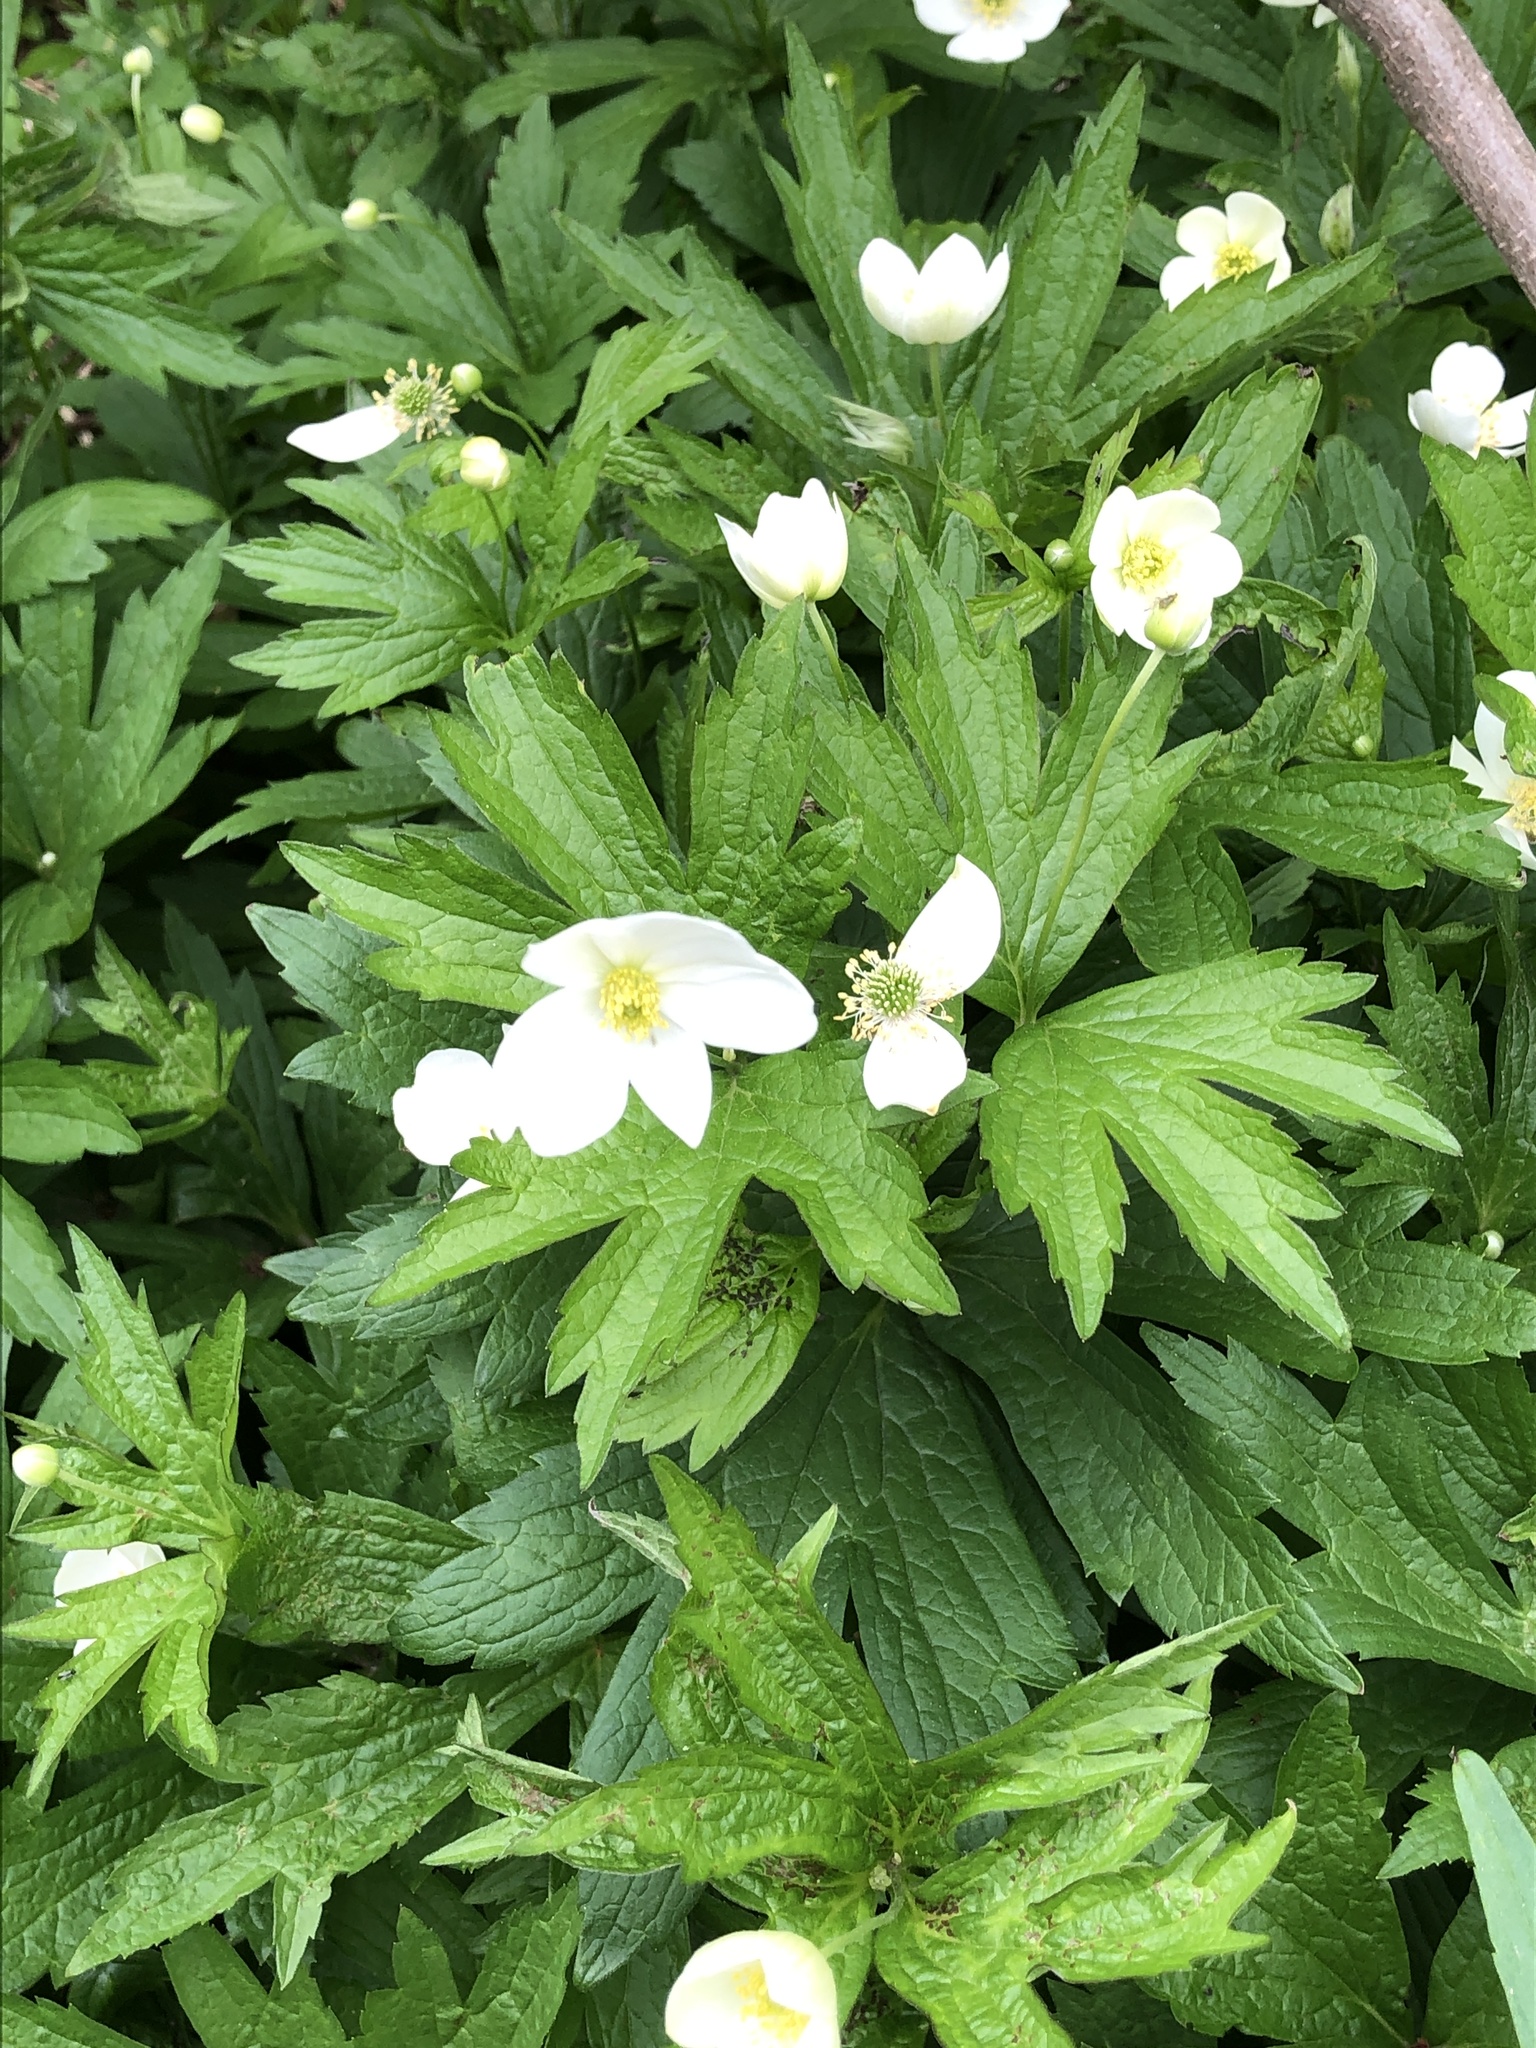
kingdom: Plantae
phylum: Tracheophyta
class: Magnoliopsida
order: Ranunculales
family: Ranunculaceae
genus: Anemonastrum
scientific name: Anemonastrum canadense
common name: Canada anemone
